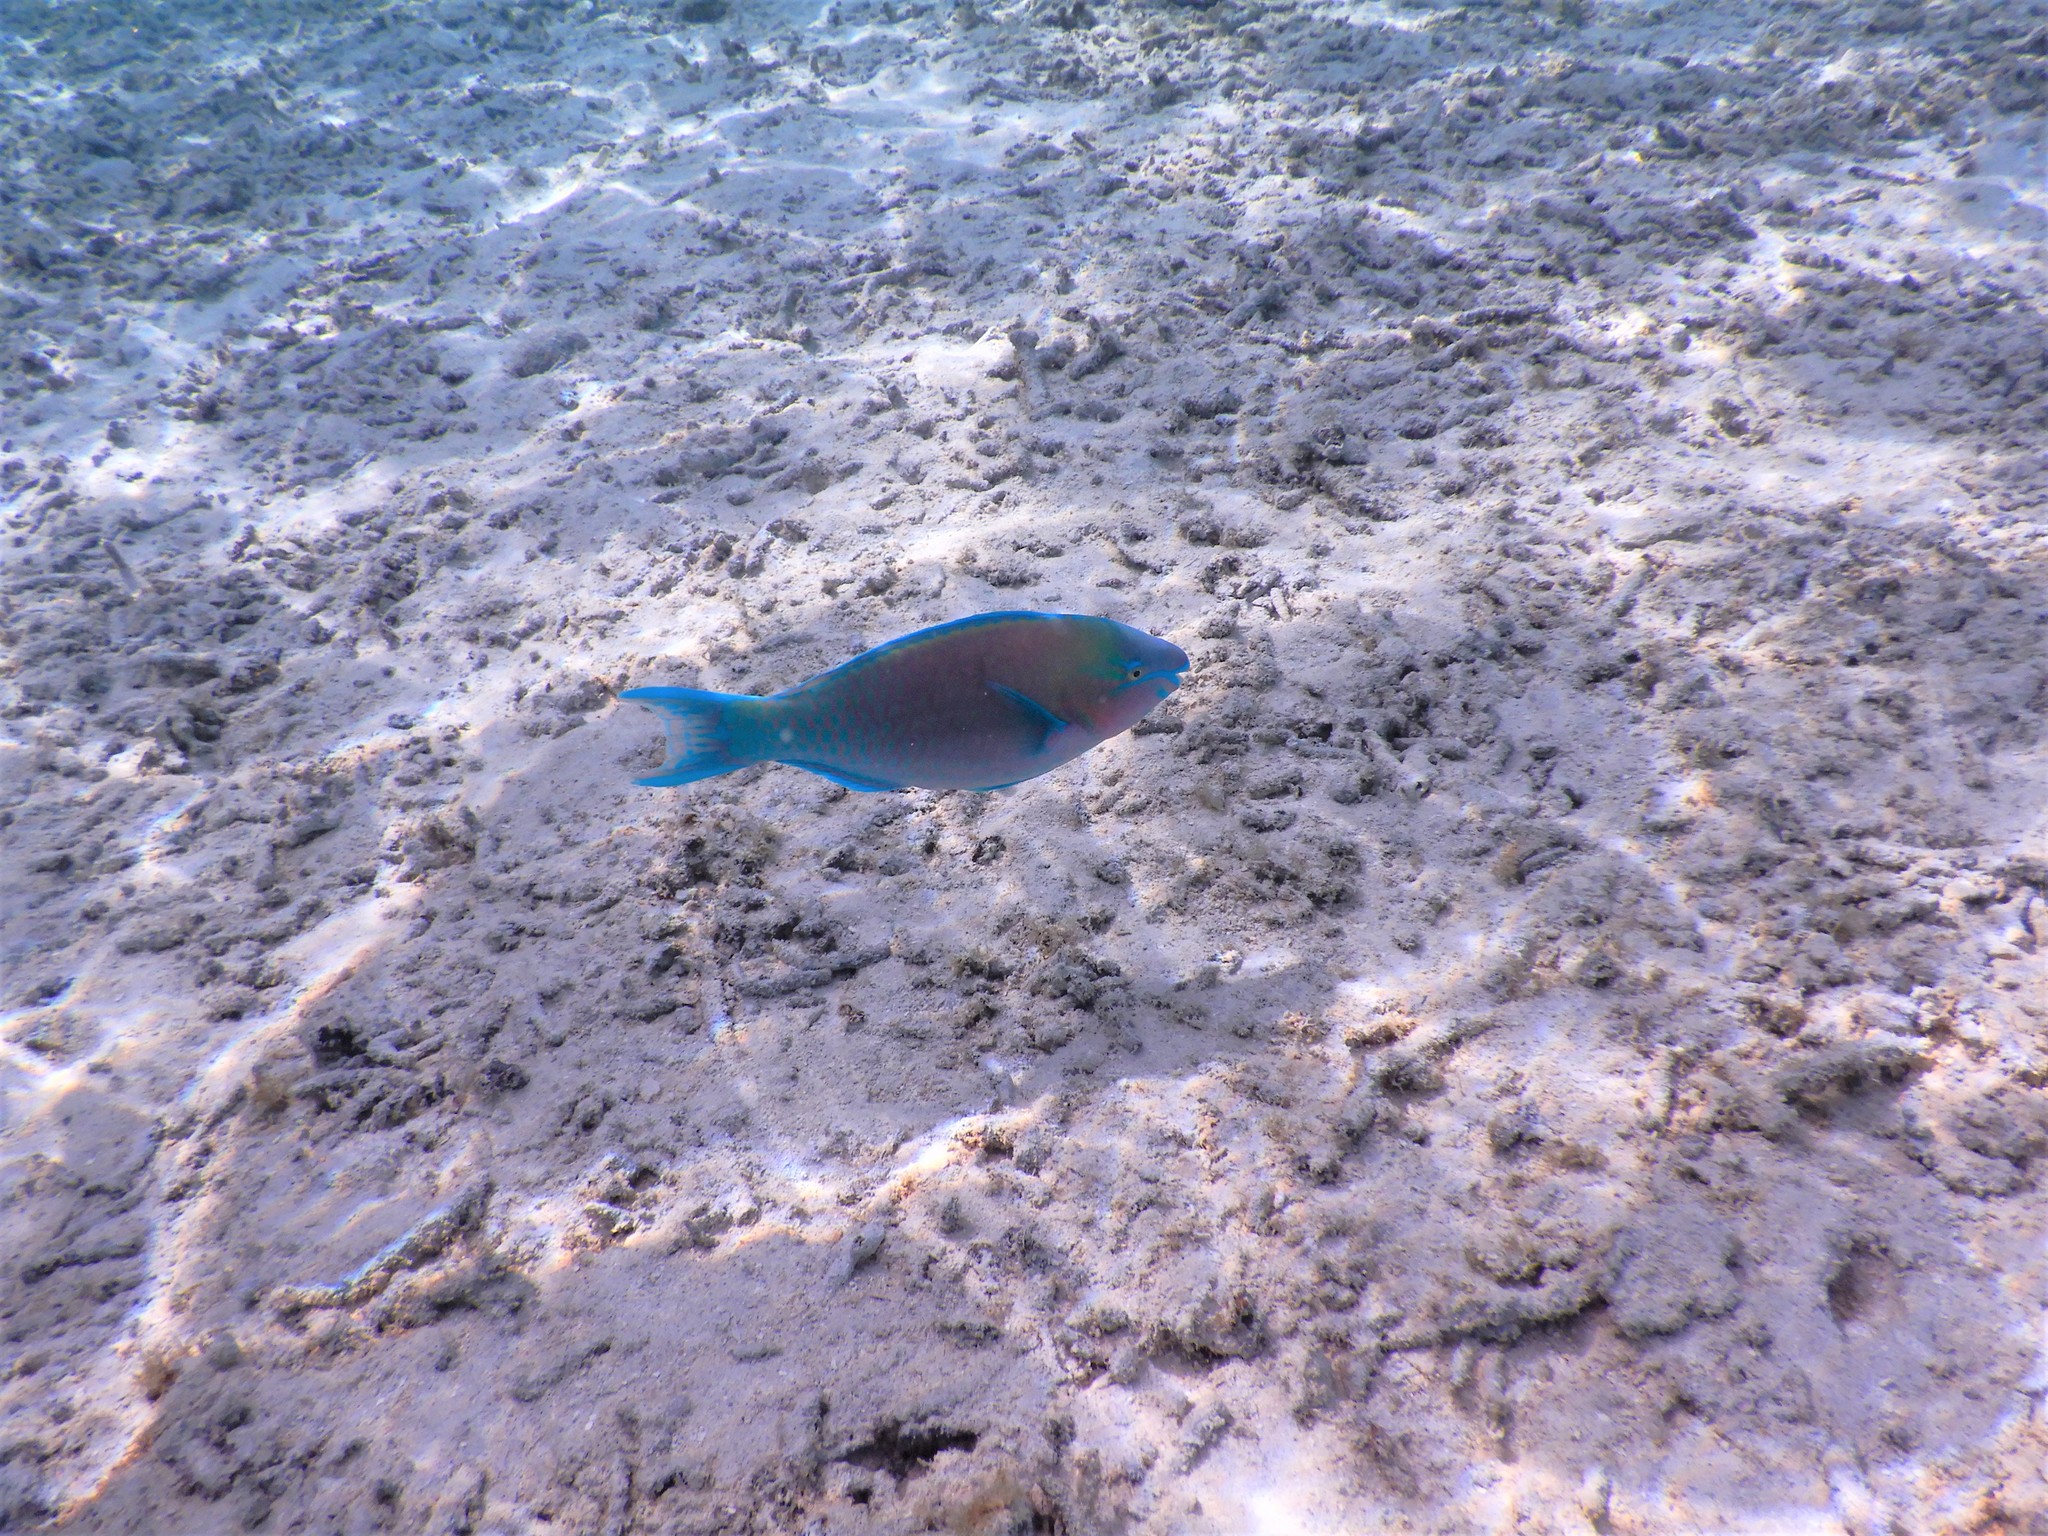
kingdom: Animalia
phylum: Chordata
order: Perciformes
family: Scaridae
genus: Scarus
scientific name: Scarus psittacus
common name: Palenose parrotfish
